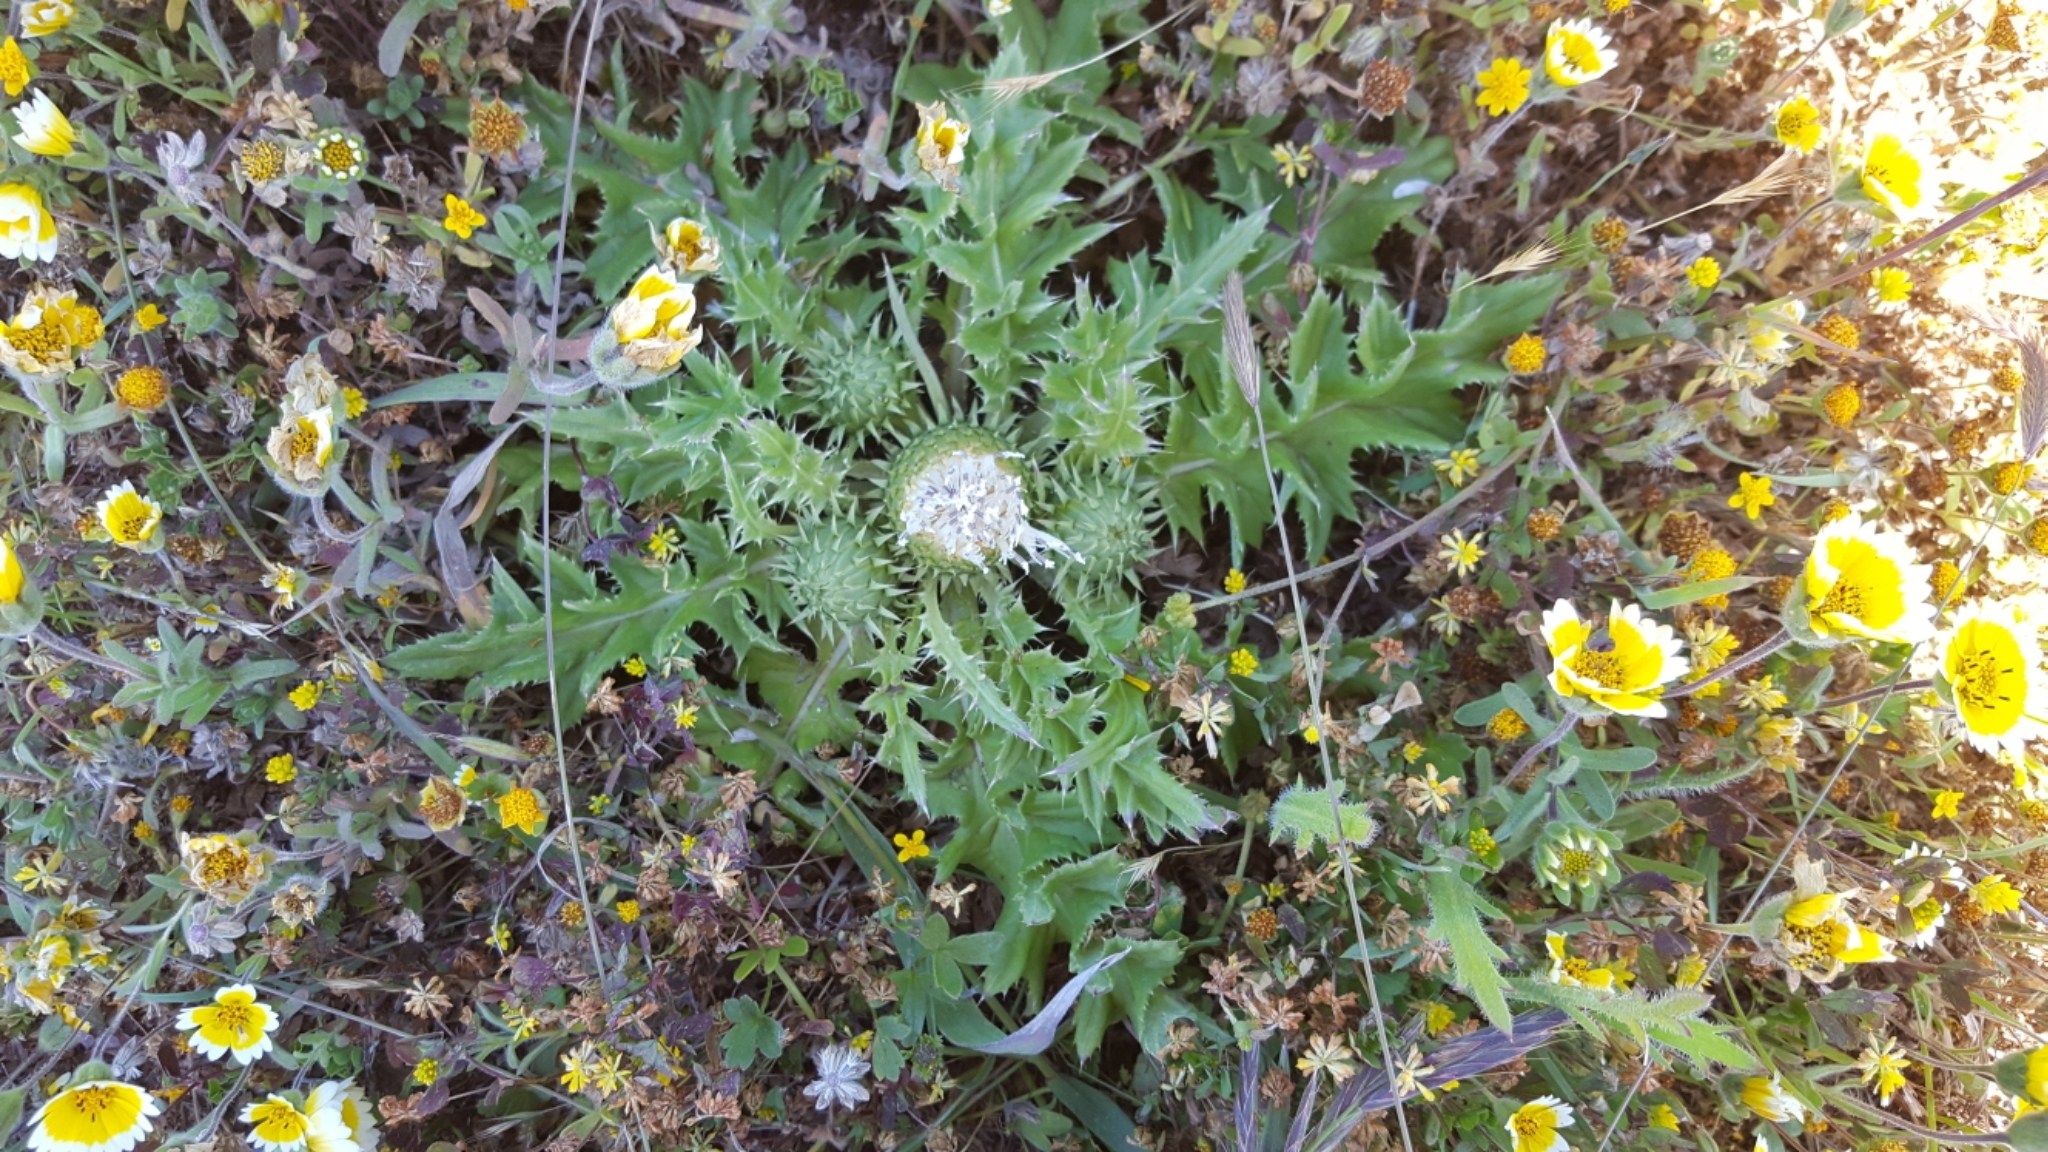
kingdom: Plantae
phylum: Tracheophyta
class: Magnoliopsida
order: Asterales
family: Asteraceae
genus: Cirsium
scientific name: Cirsium quercetorum
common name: Alameda county thistle
